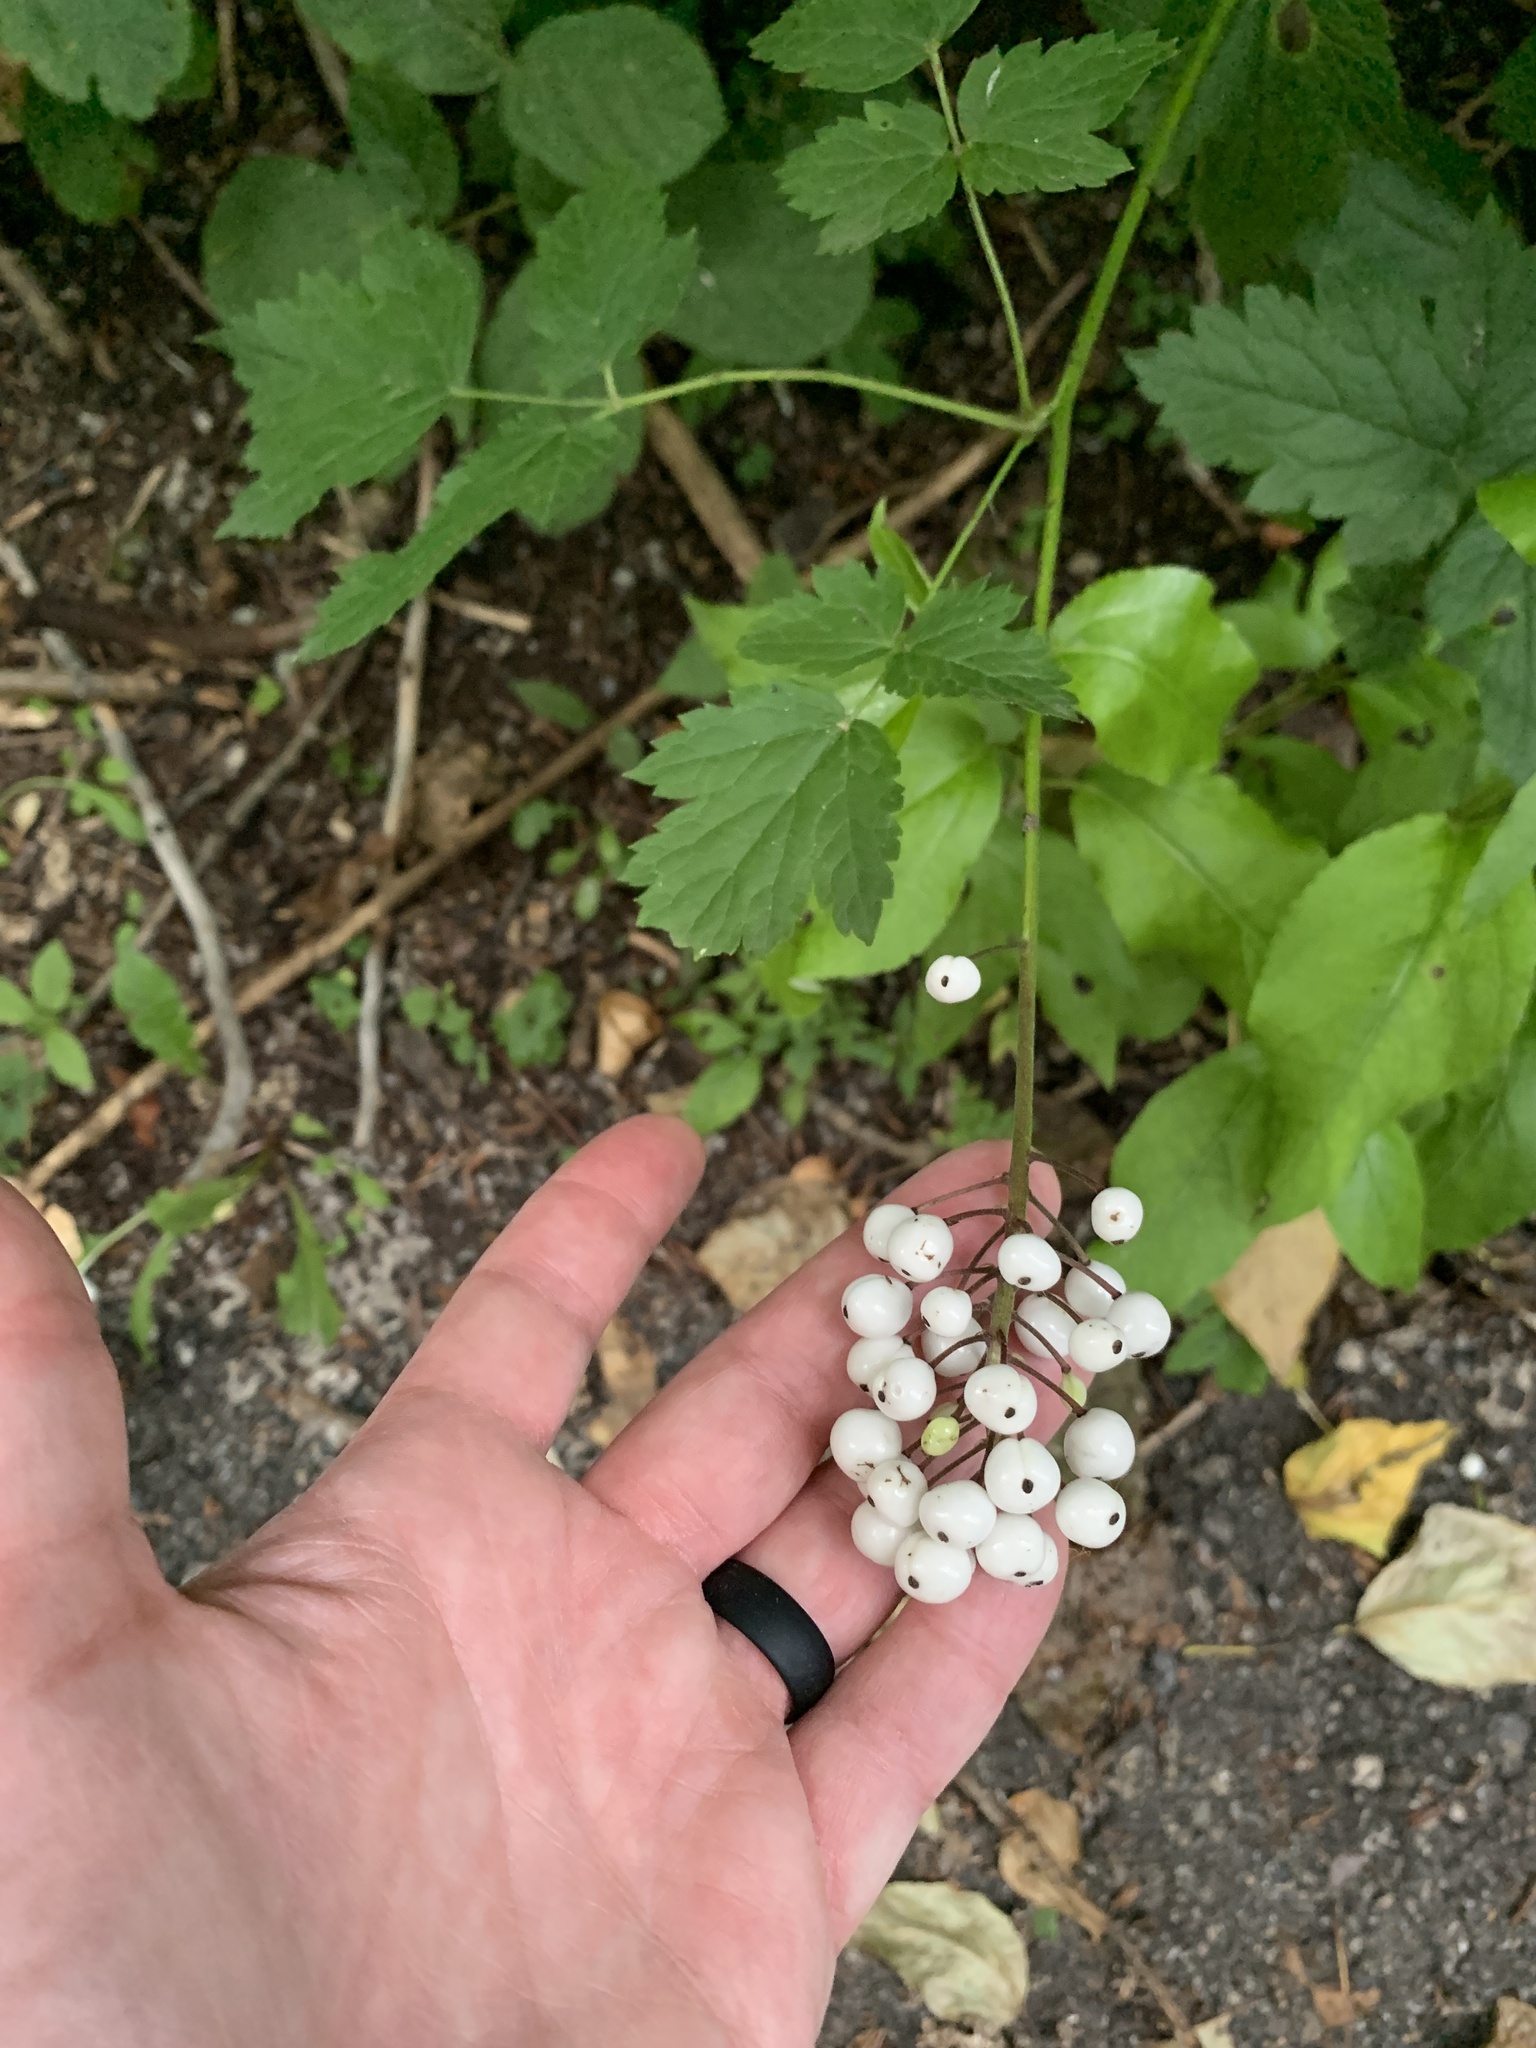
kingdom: Plantae
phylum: Tracheophyta
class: Magnoliopsida
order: Ranunculales
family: Ranunculaceae
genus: Actaea
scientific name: Actaea rubra
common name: Red baneberry
